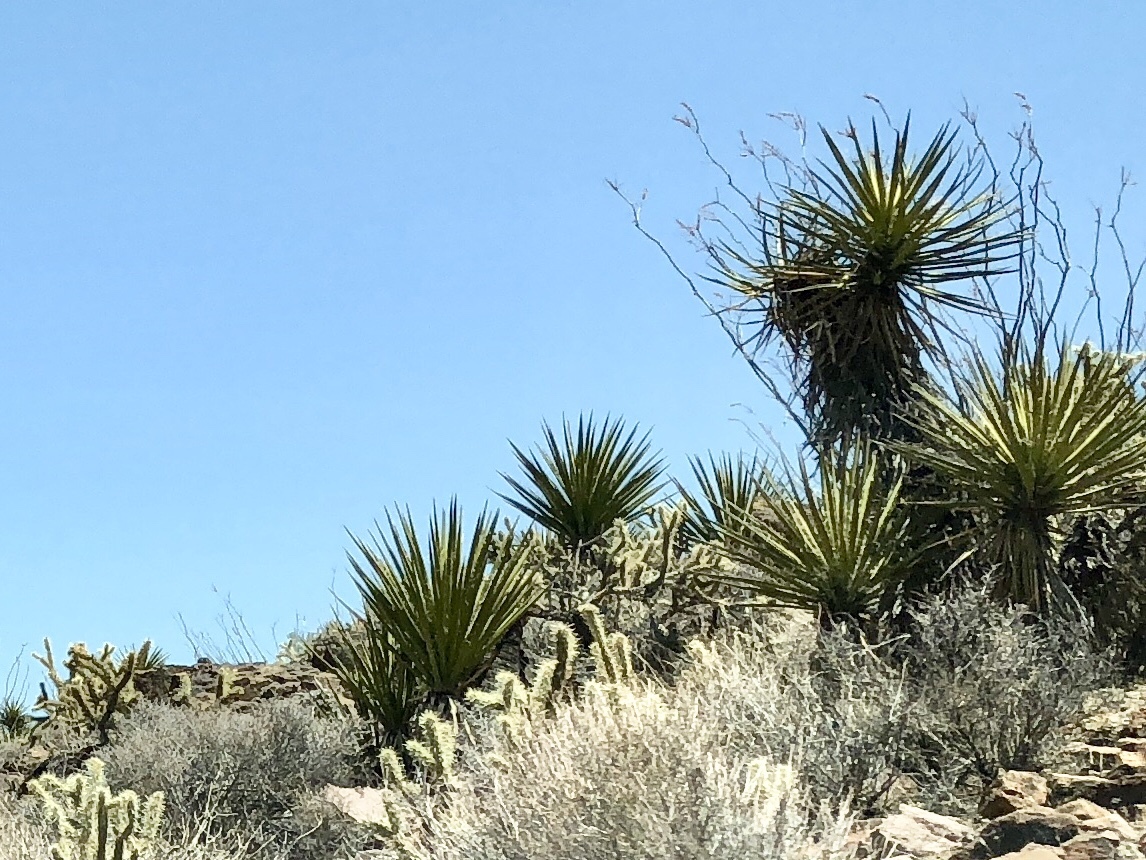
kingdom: Plantae
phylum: Tracheophyta
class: Liliopsida
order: Asparagales
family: Asparagaceae
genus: Yucca
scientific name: Yucca schidigera
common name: Mojave yucca
